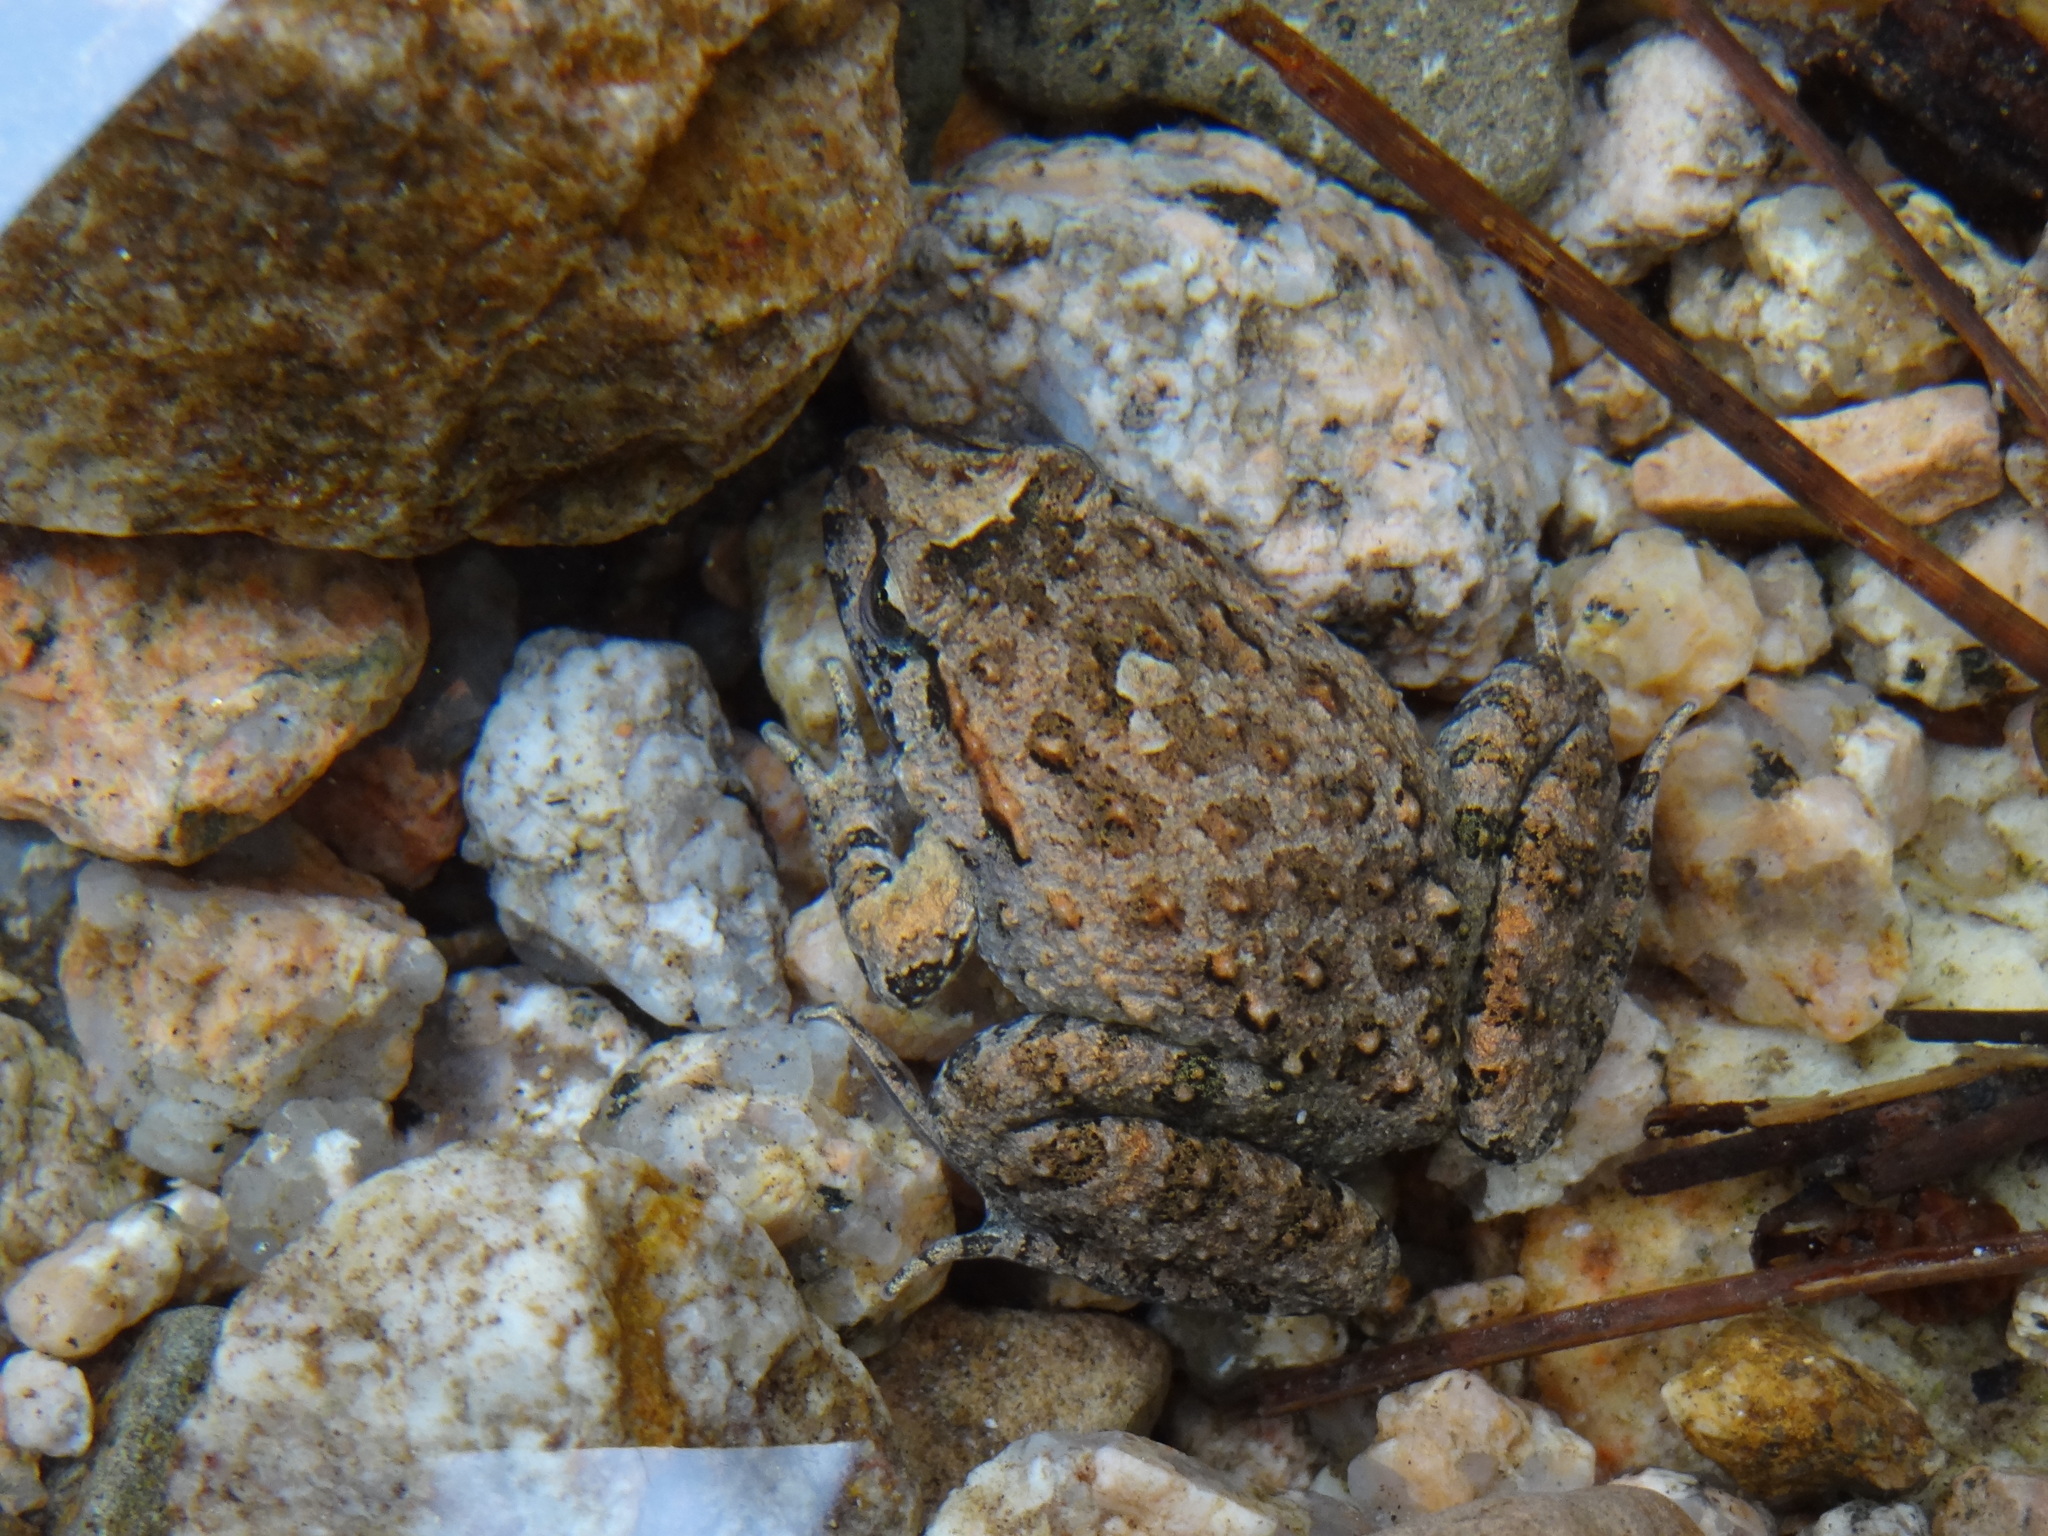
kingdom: Animalia
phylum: Chordata
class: Amphibia
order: Anura
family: Alytidae
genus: Discoglossus
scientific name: Discoglossus sardus
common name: Sardinia painted frog
